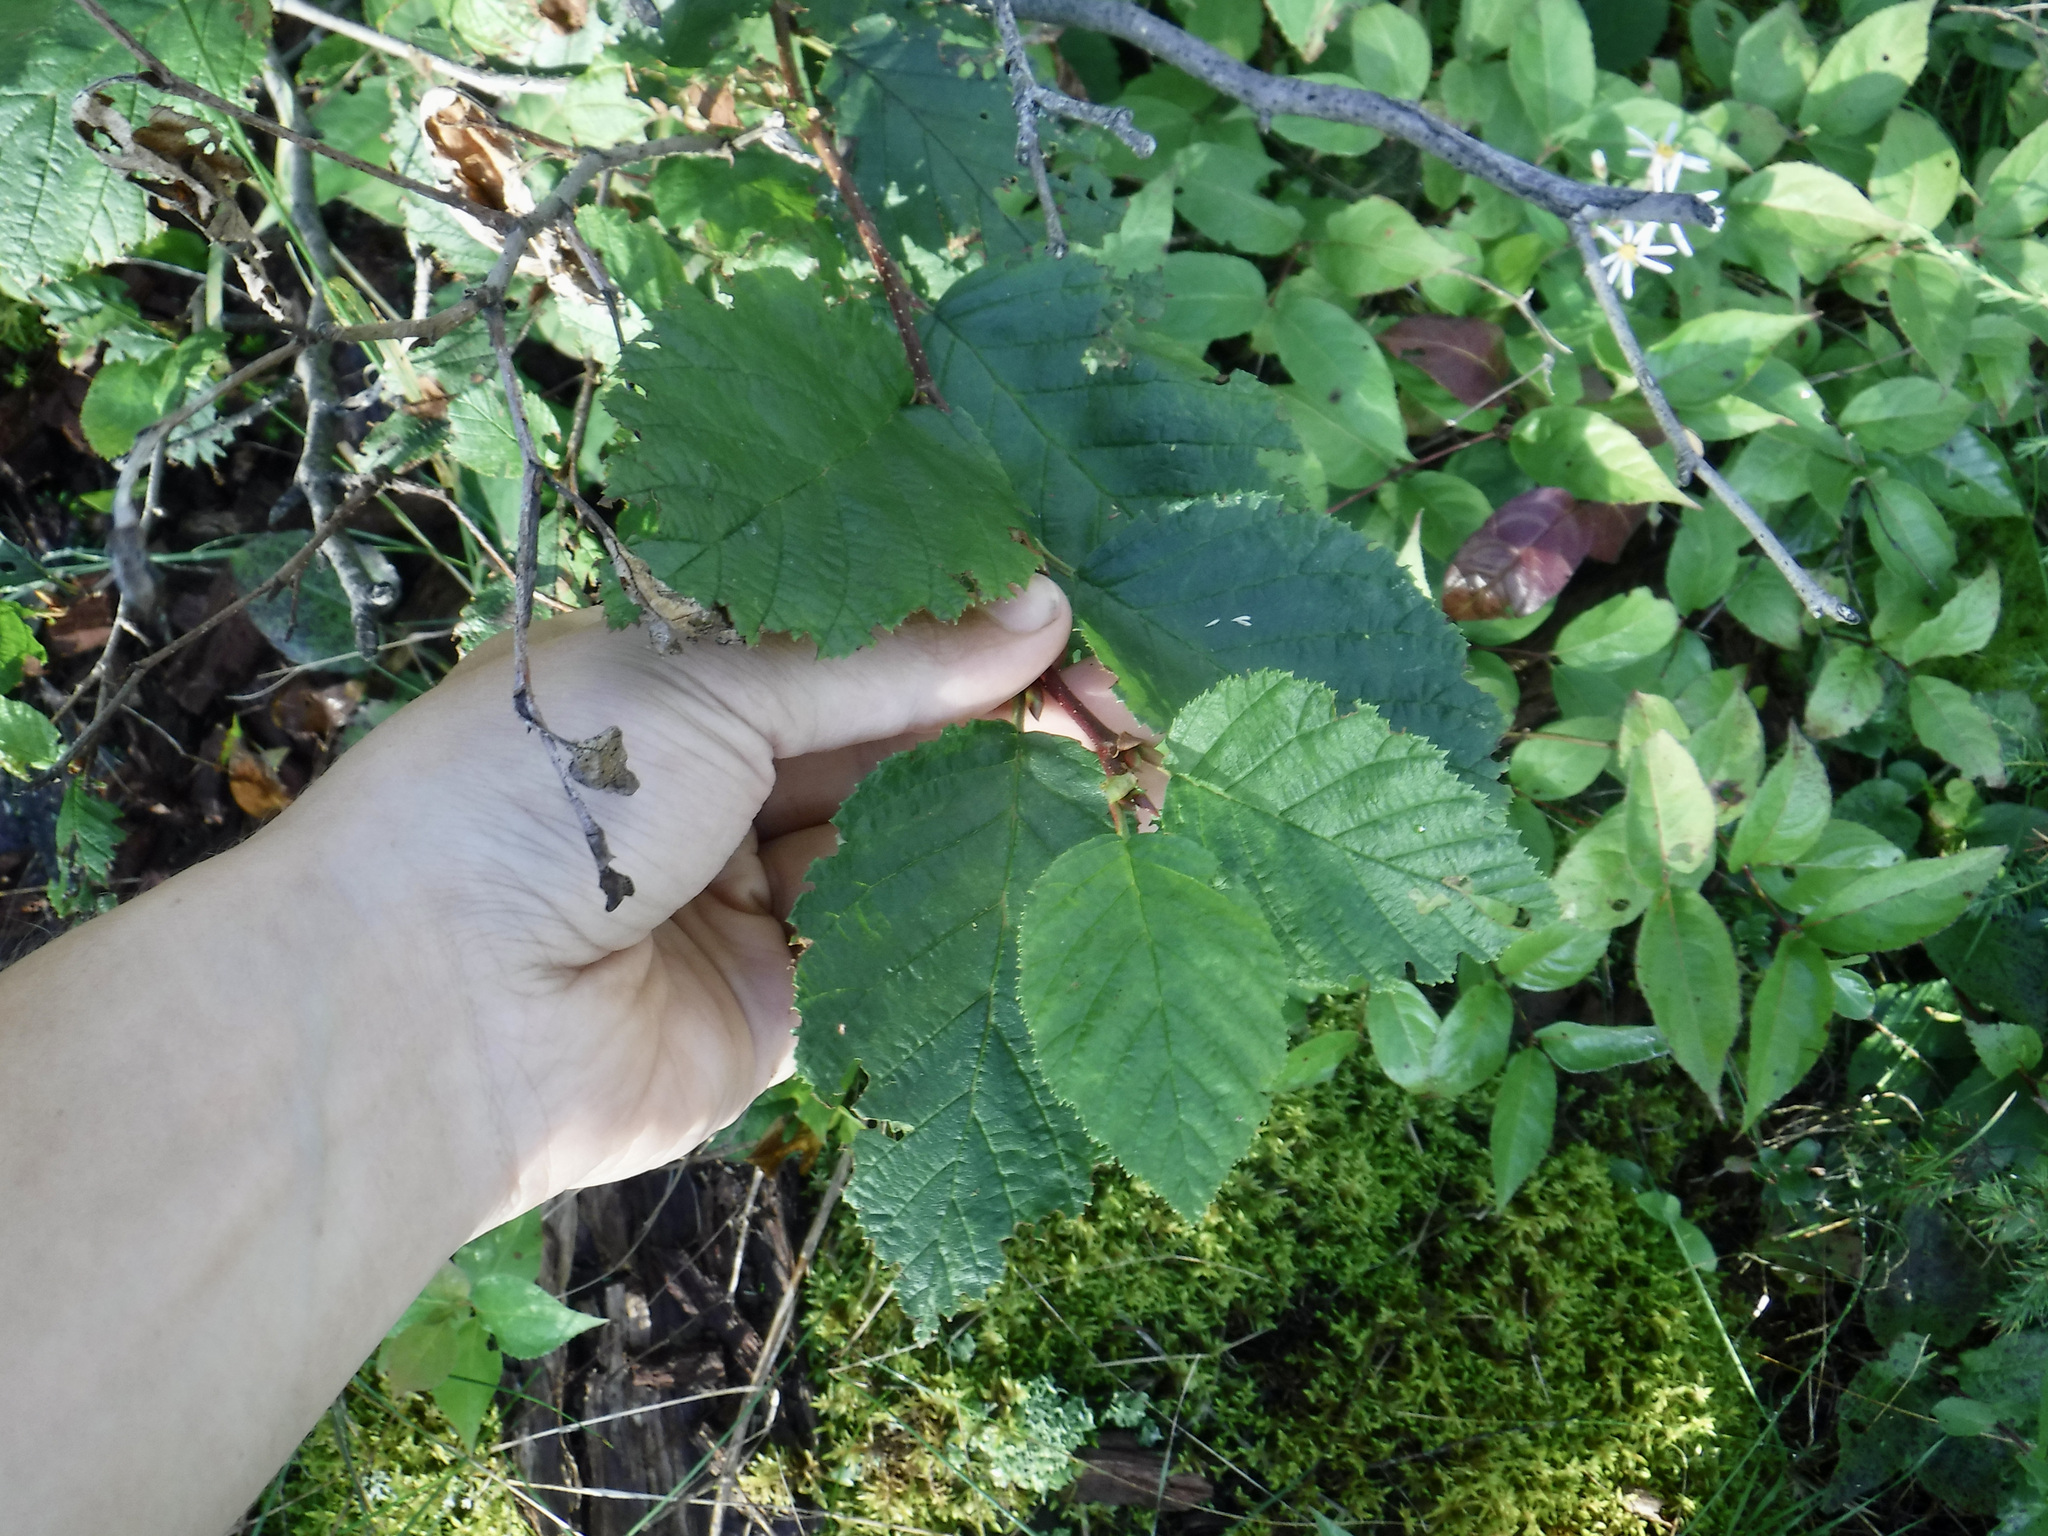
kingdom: Plantae
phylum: Tracheophyta
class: Magnoliopsida
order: Fagales
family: Betulaceae
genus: Alnus
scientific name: Alnus alnobetula
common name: Green alder
